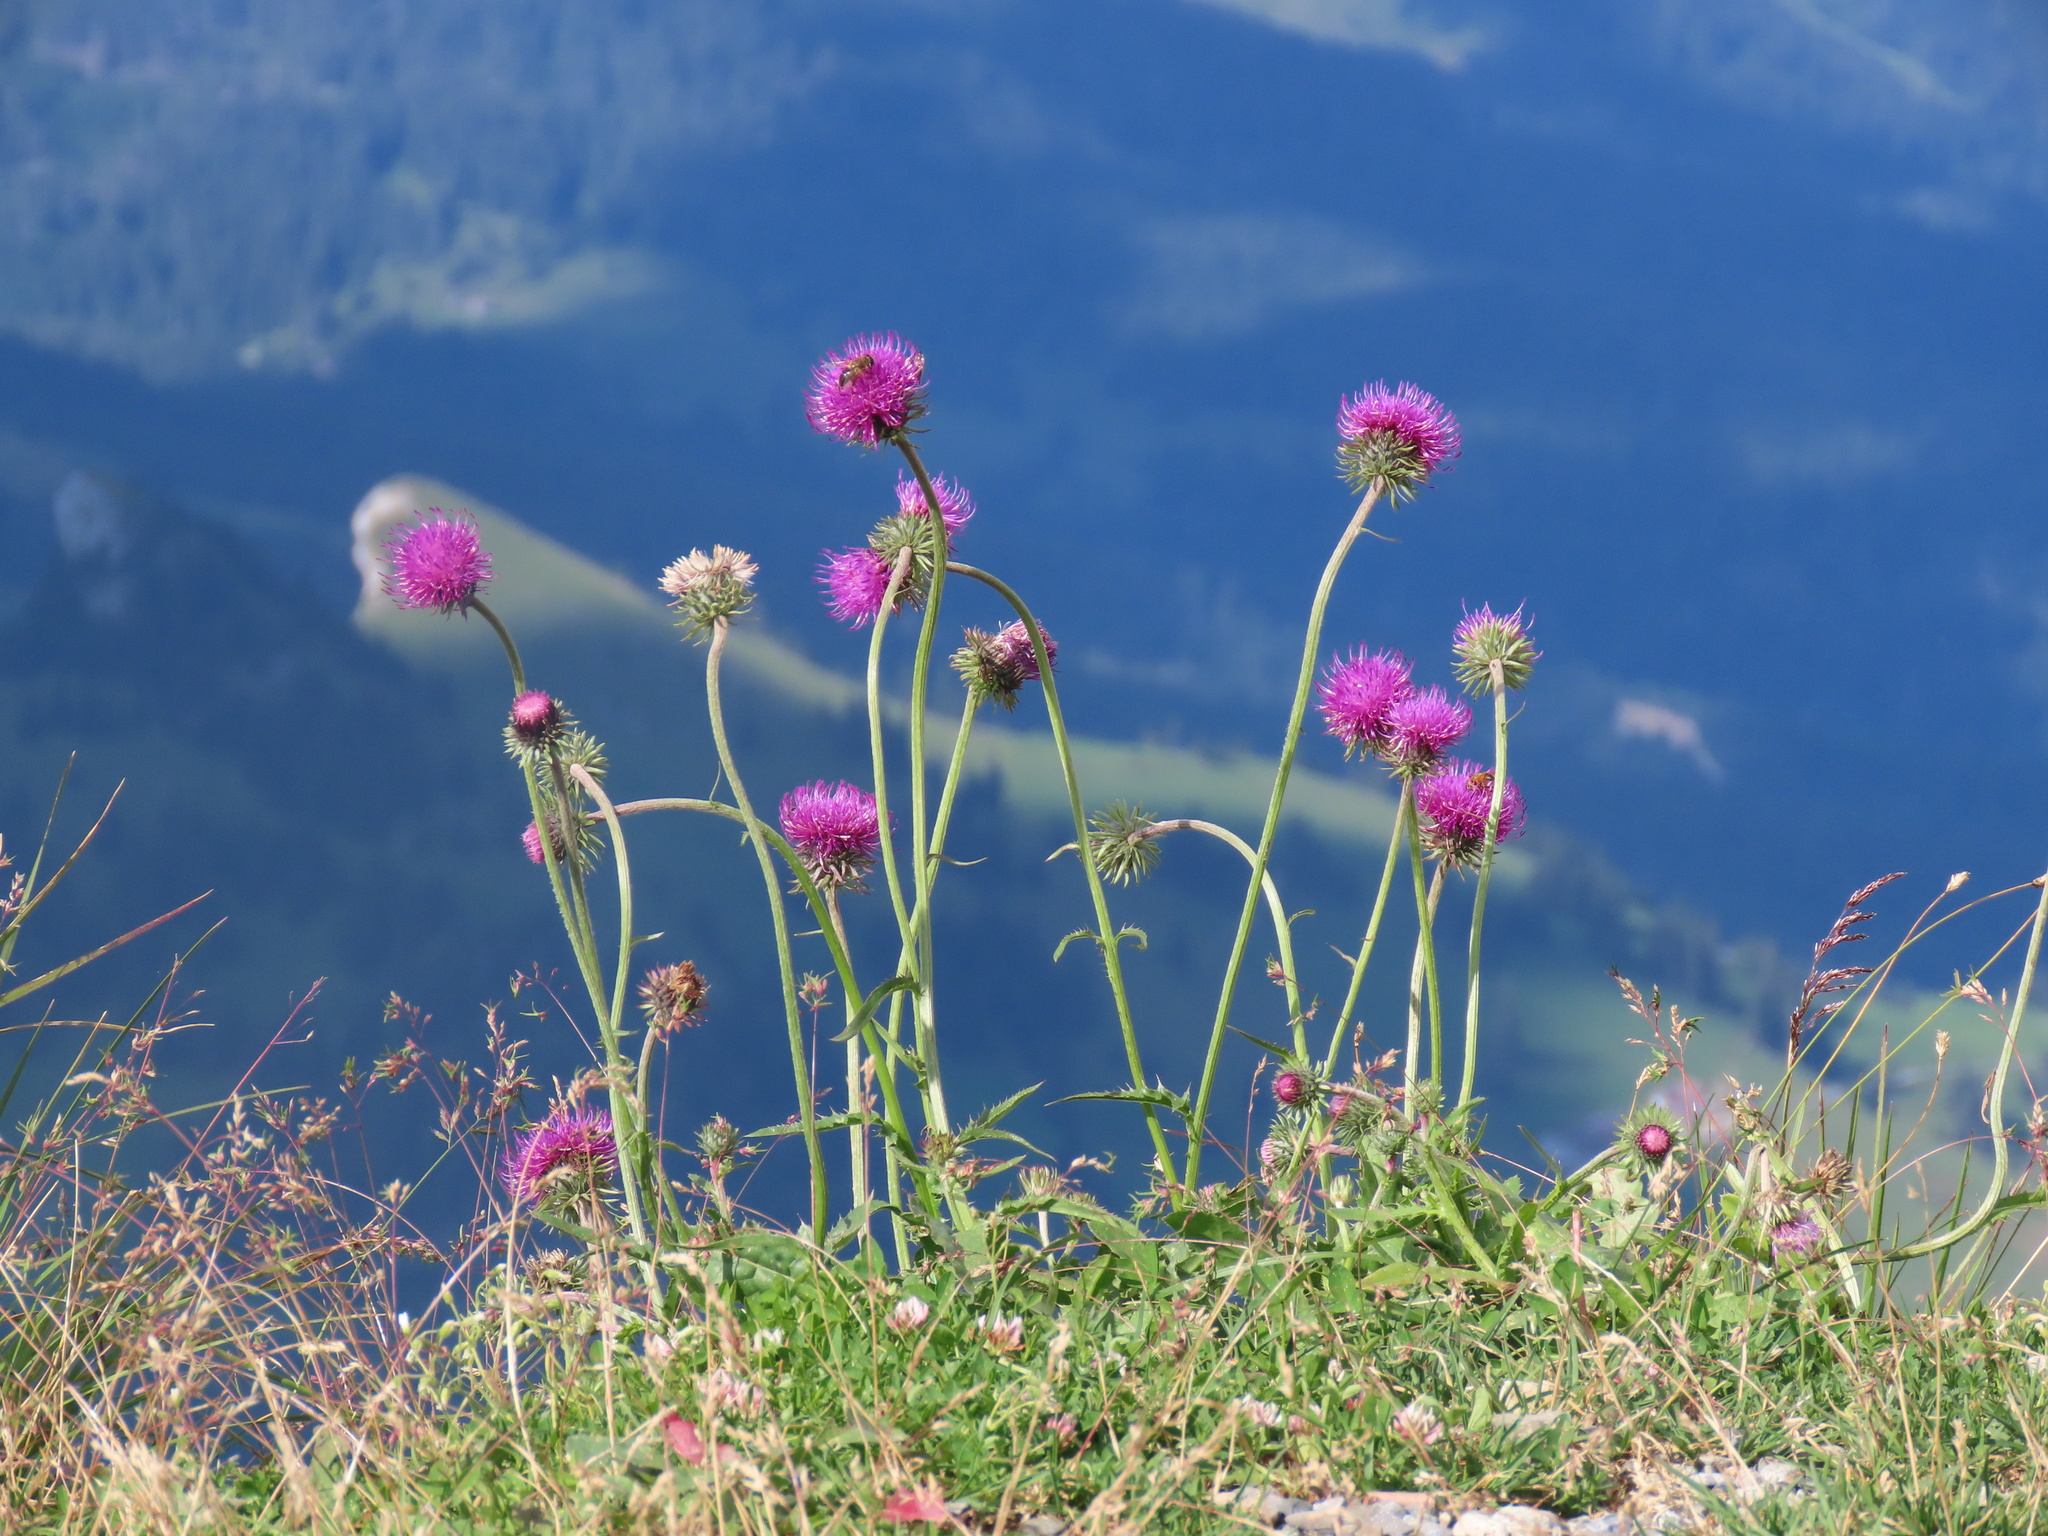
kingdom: Plantae
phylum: Tracheophyta
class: Magnoliopsida
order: Asterales
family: Asteraceae
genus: Carduus
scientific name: Carduus defloratus
